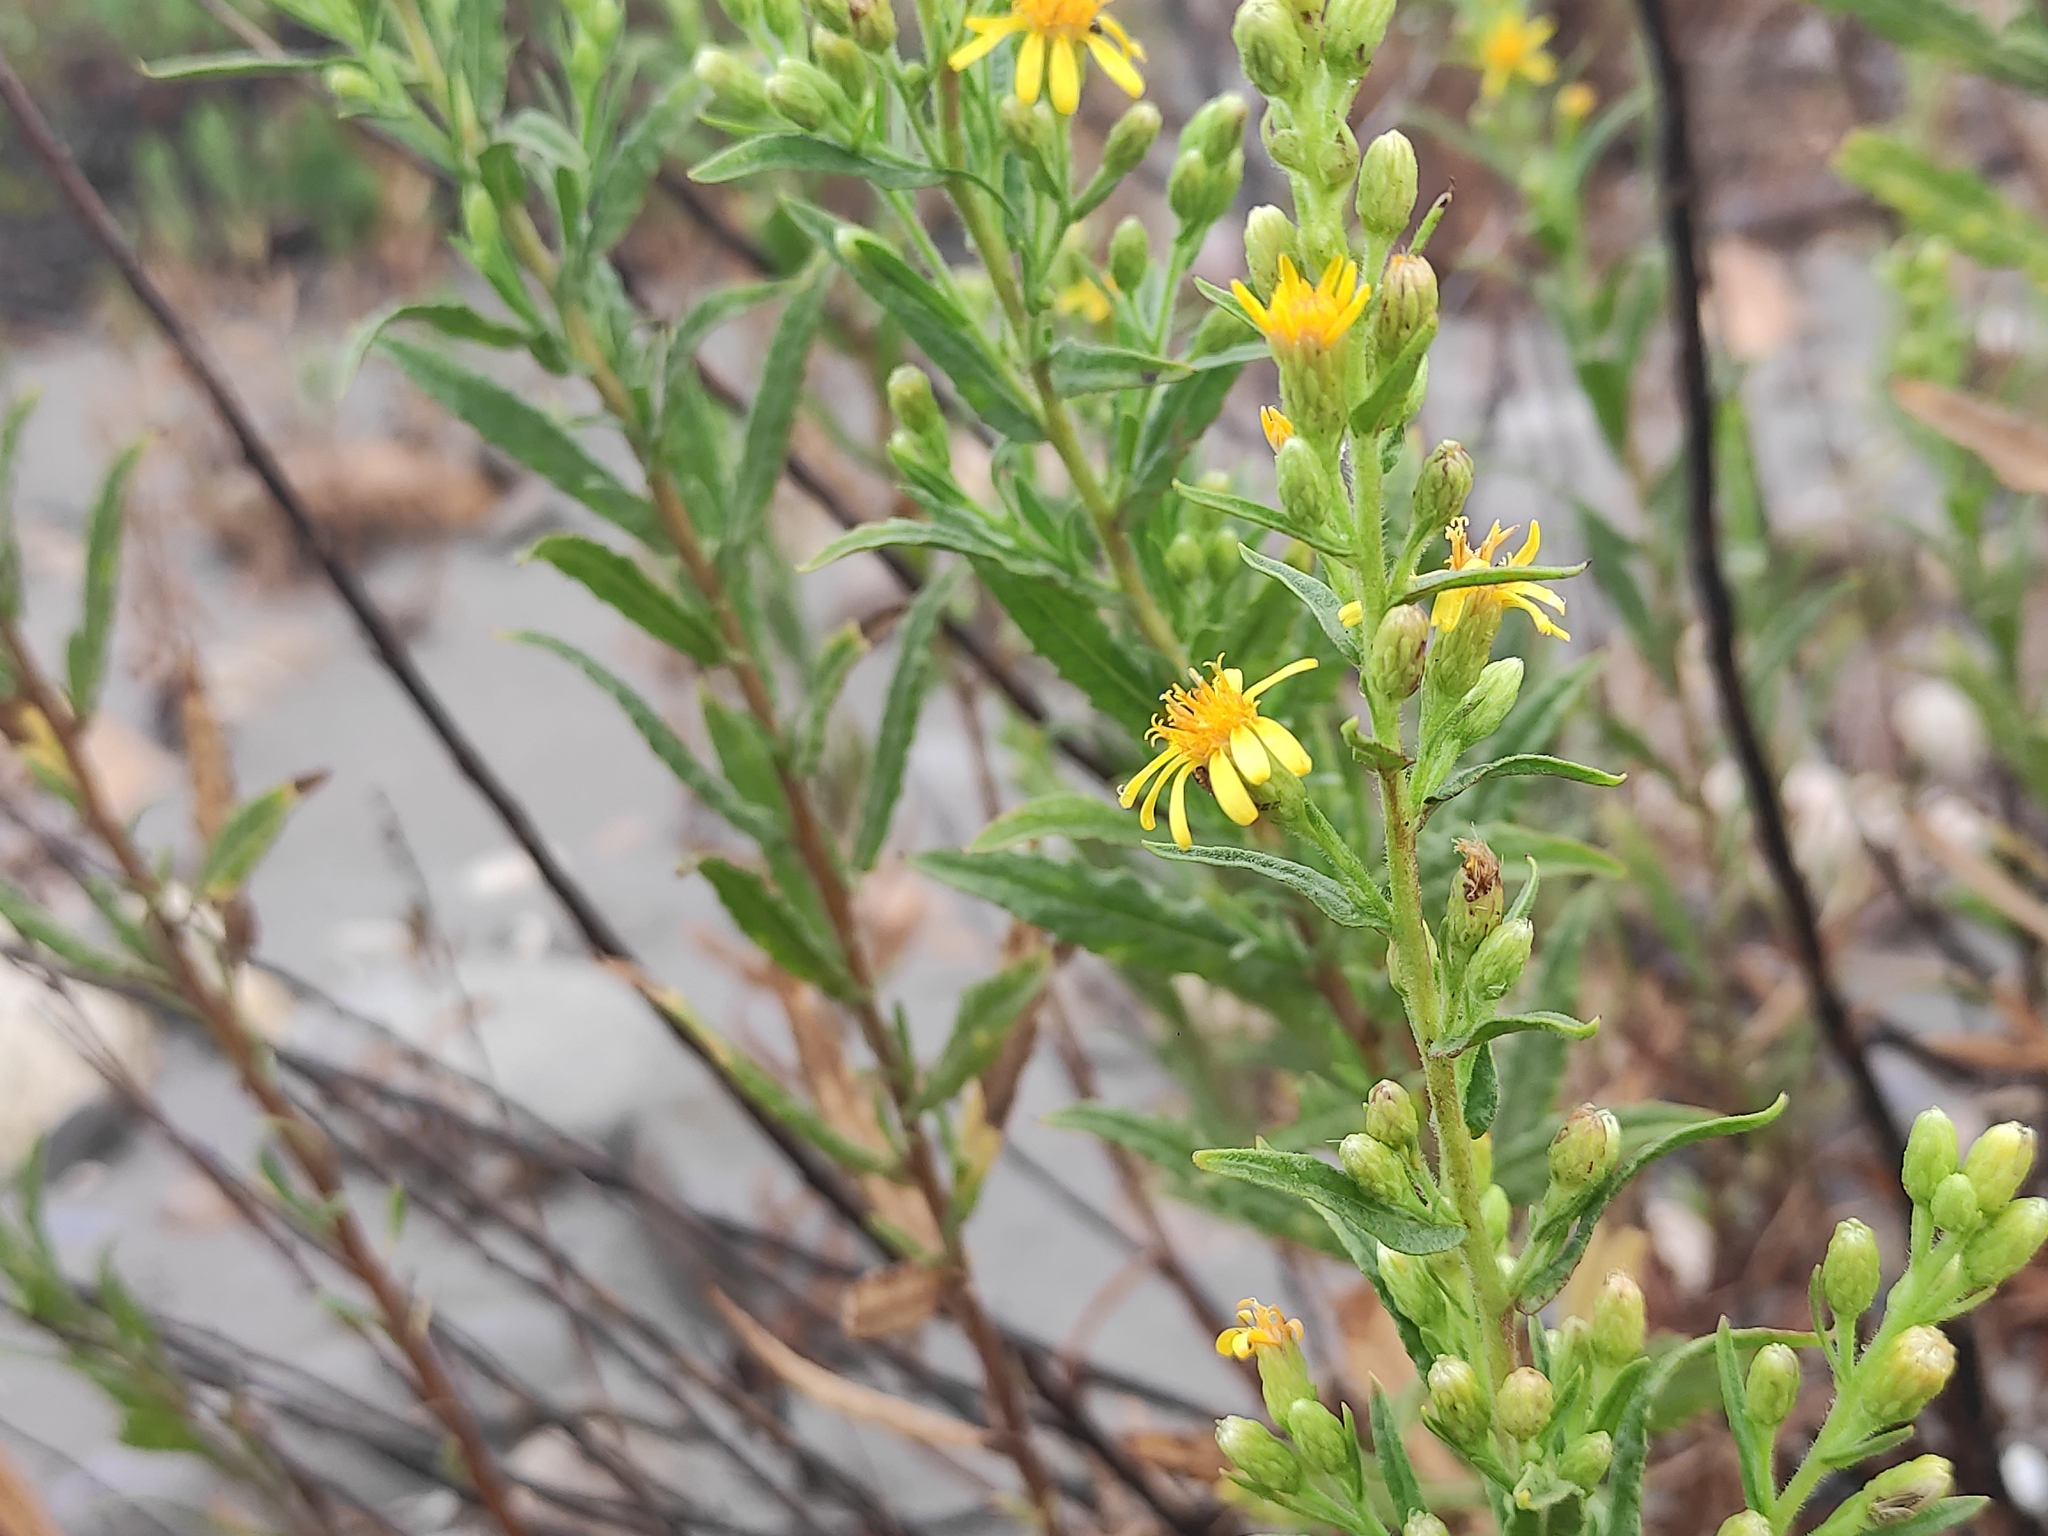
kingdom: Plantae
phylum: Tracheophyta
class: Magnoliopsida
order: Asterales
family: Asteraceae
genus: Dittrichia
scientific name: Dittrichia viscosa
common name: Woody fleabane
